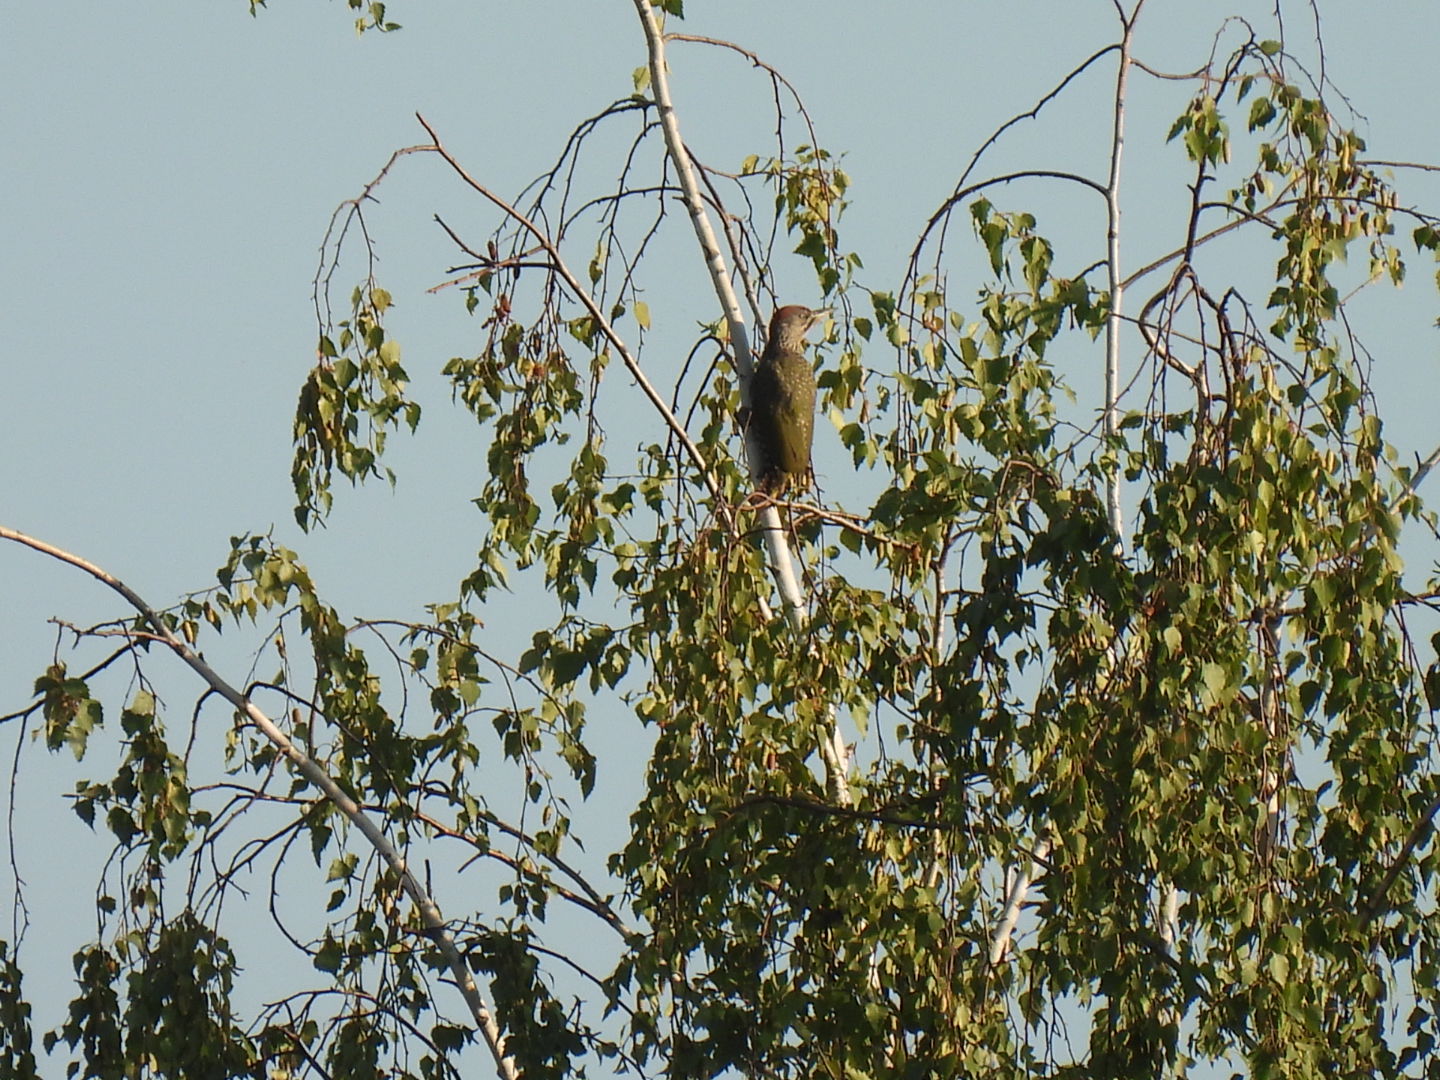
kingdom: Animalia
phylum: Chordata
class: Aves
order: Piciformes
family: Picidae
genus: Picus
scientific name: Picus viridis
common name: European green woodpecker
